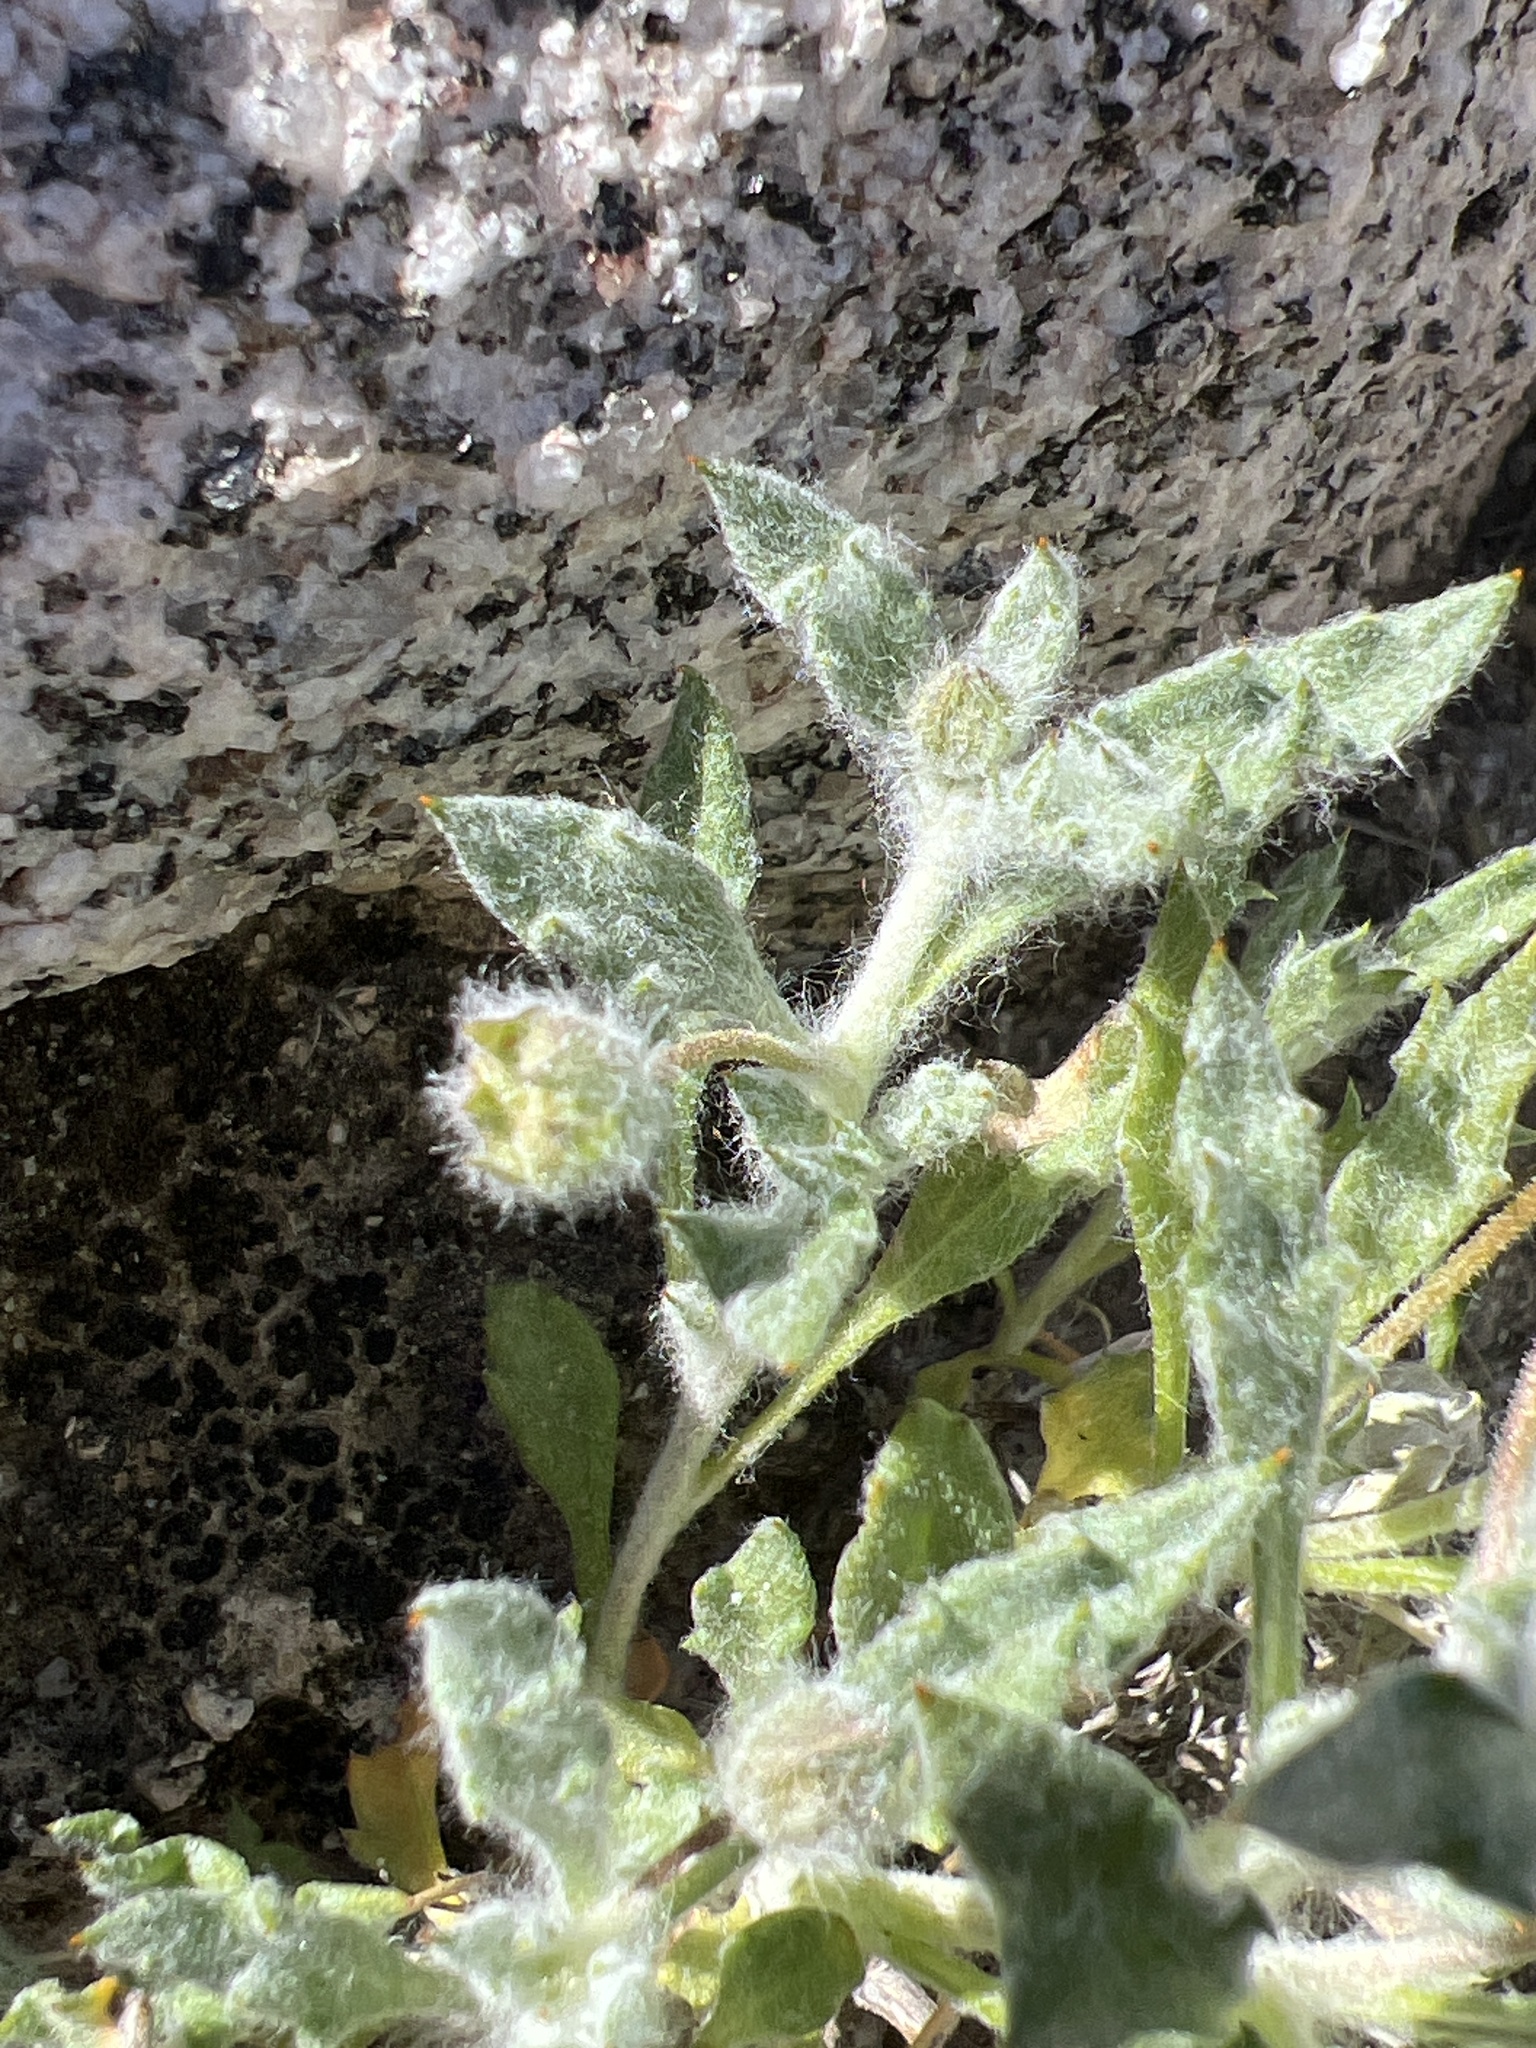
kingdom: Plantae
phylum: Tracheophyta
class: Magnoliopsida
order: Asterales
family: Asteraceae
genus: Trichoptilium
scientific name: Trichoptilium incisum
